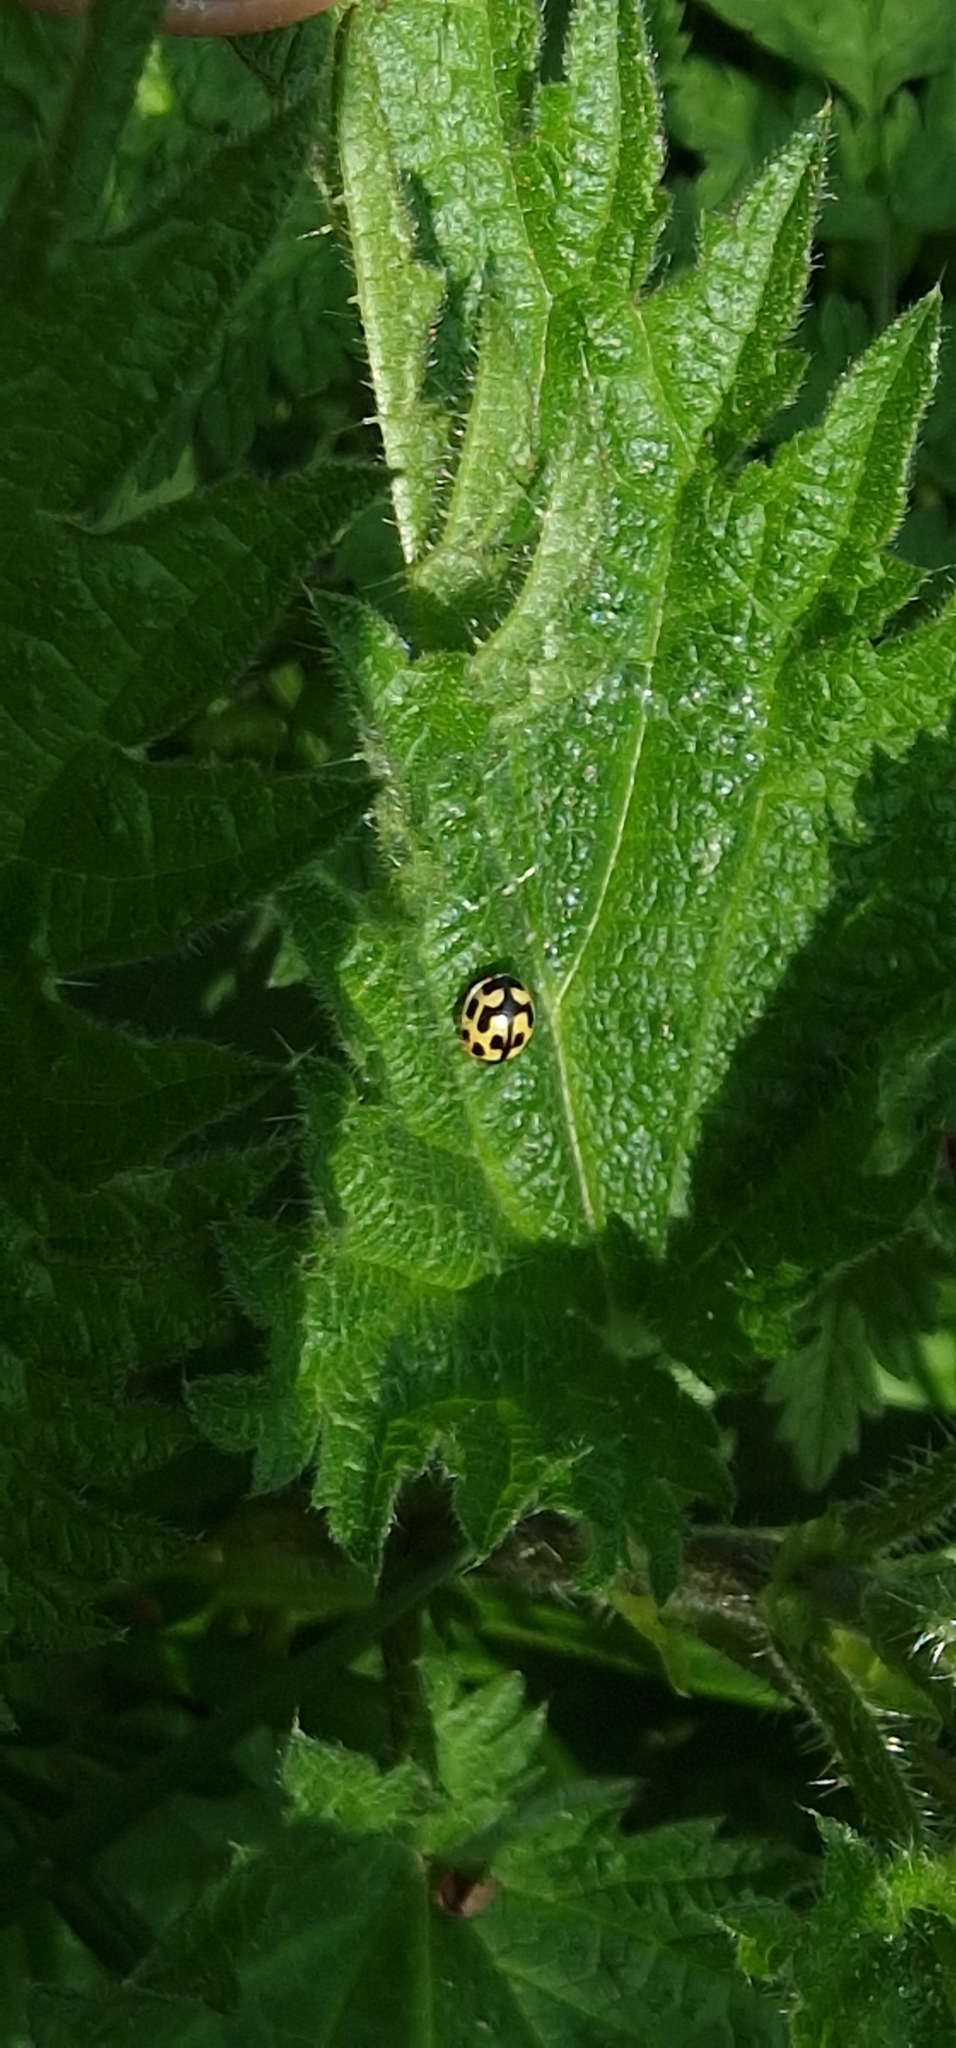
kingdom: Animalia
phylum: Arthropoda
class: Insecta
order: Coleoptera
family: Coccinellidae
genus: Propylaea
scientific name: Propylaea quatuordecimpunctata
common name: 14-spotted ladybird beetle
